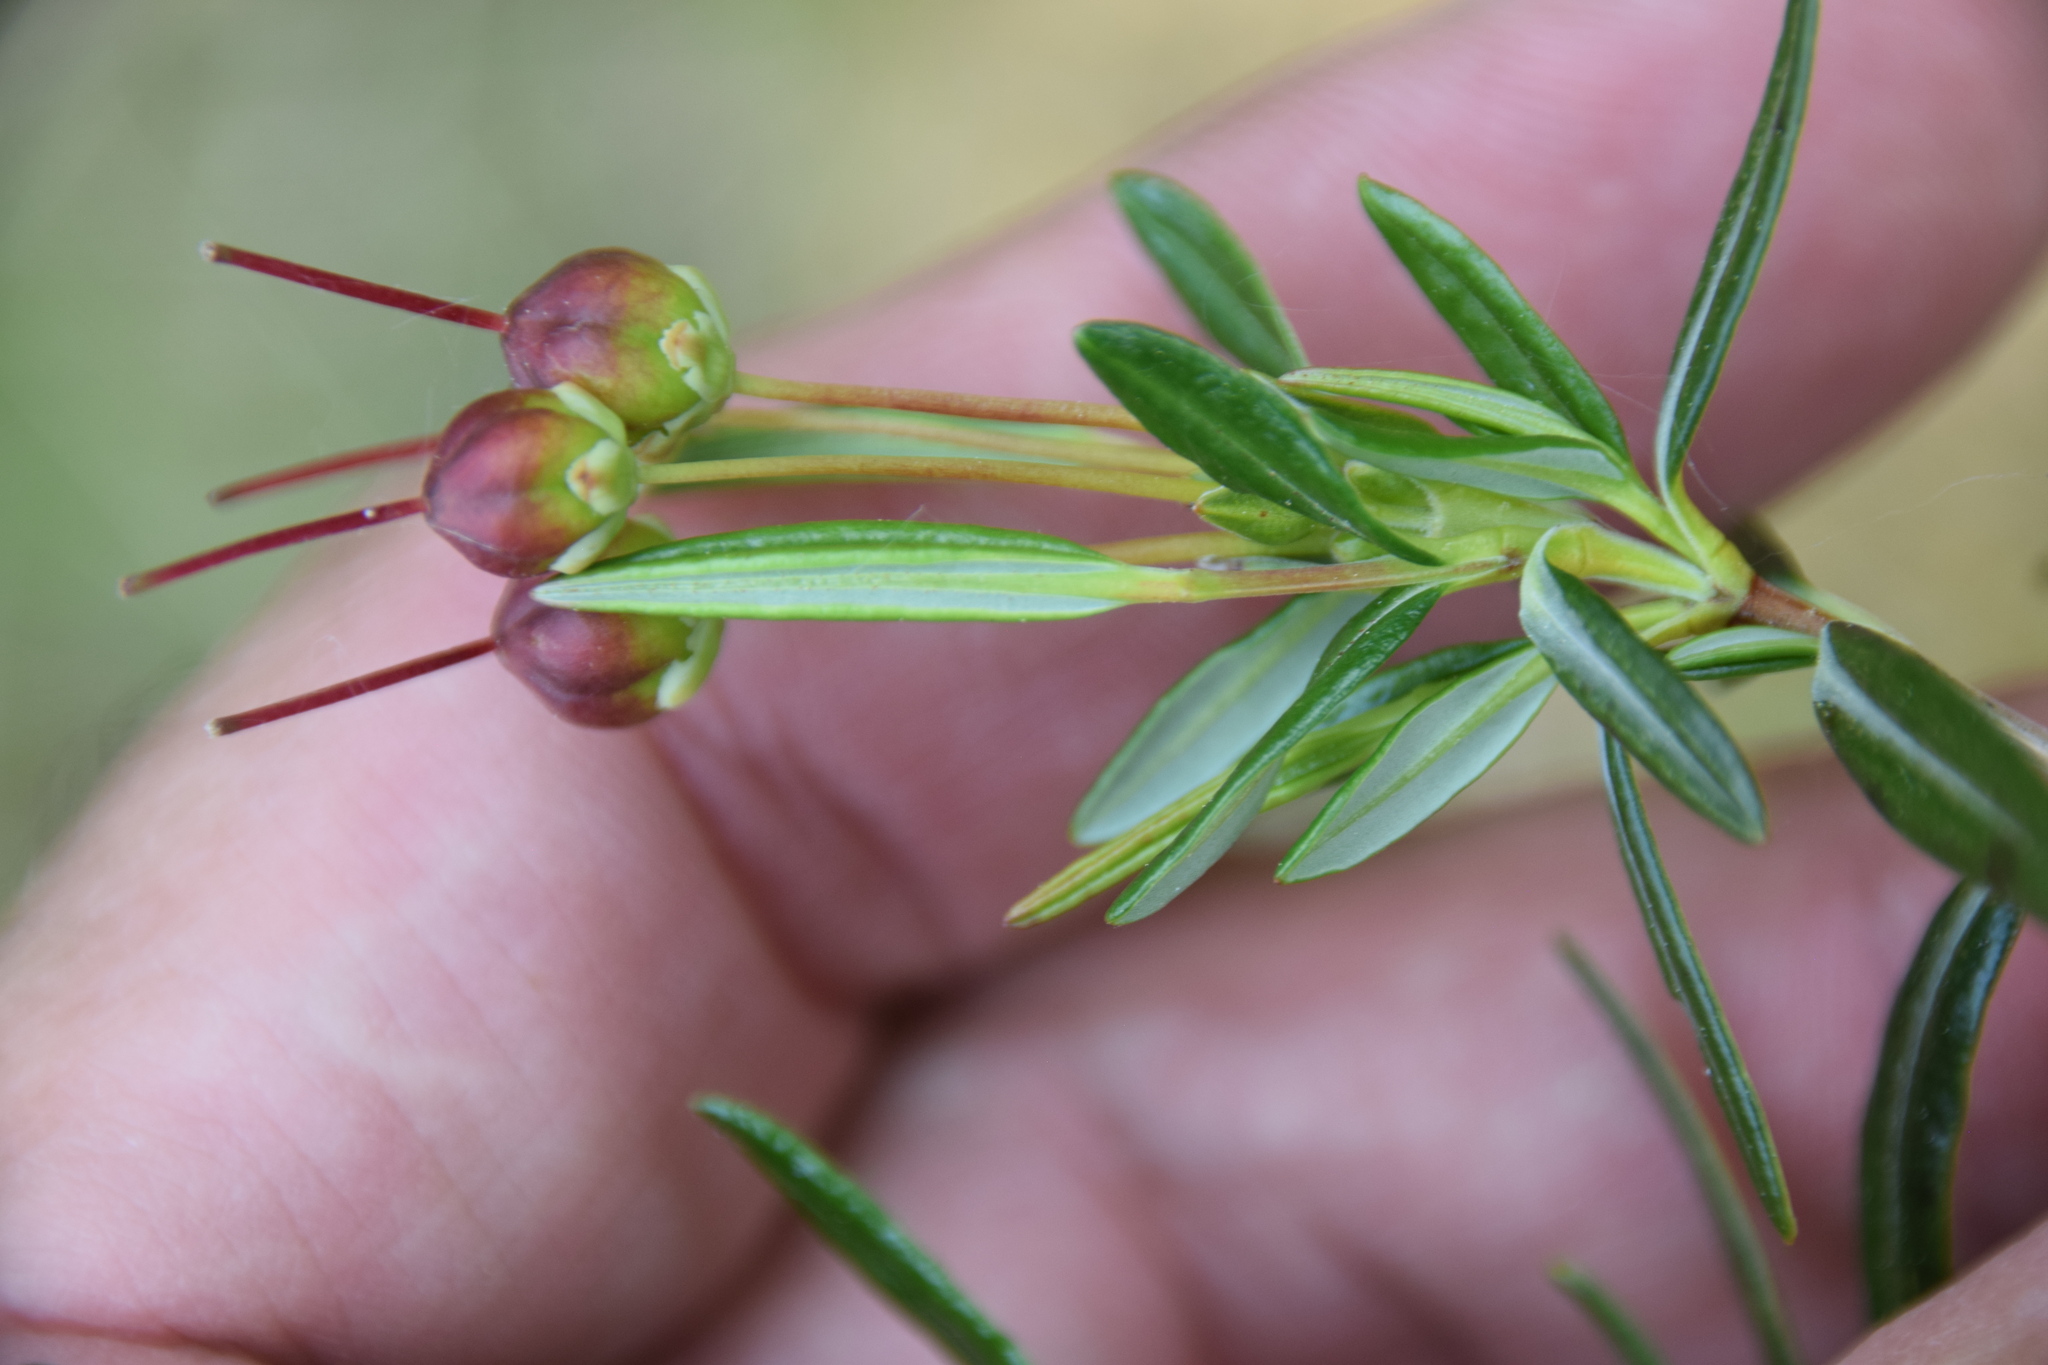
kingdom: Plantae
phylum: Tracheophyta
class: Magnoliopsida
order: Ericales
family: Ericaceae
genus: Kalmia
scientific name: Kalmia polifolia
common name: Bog-laurel
